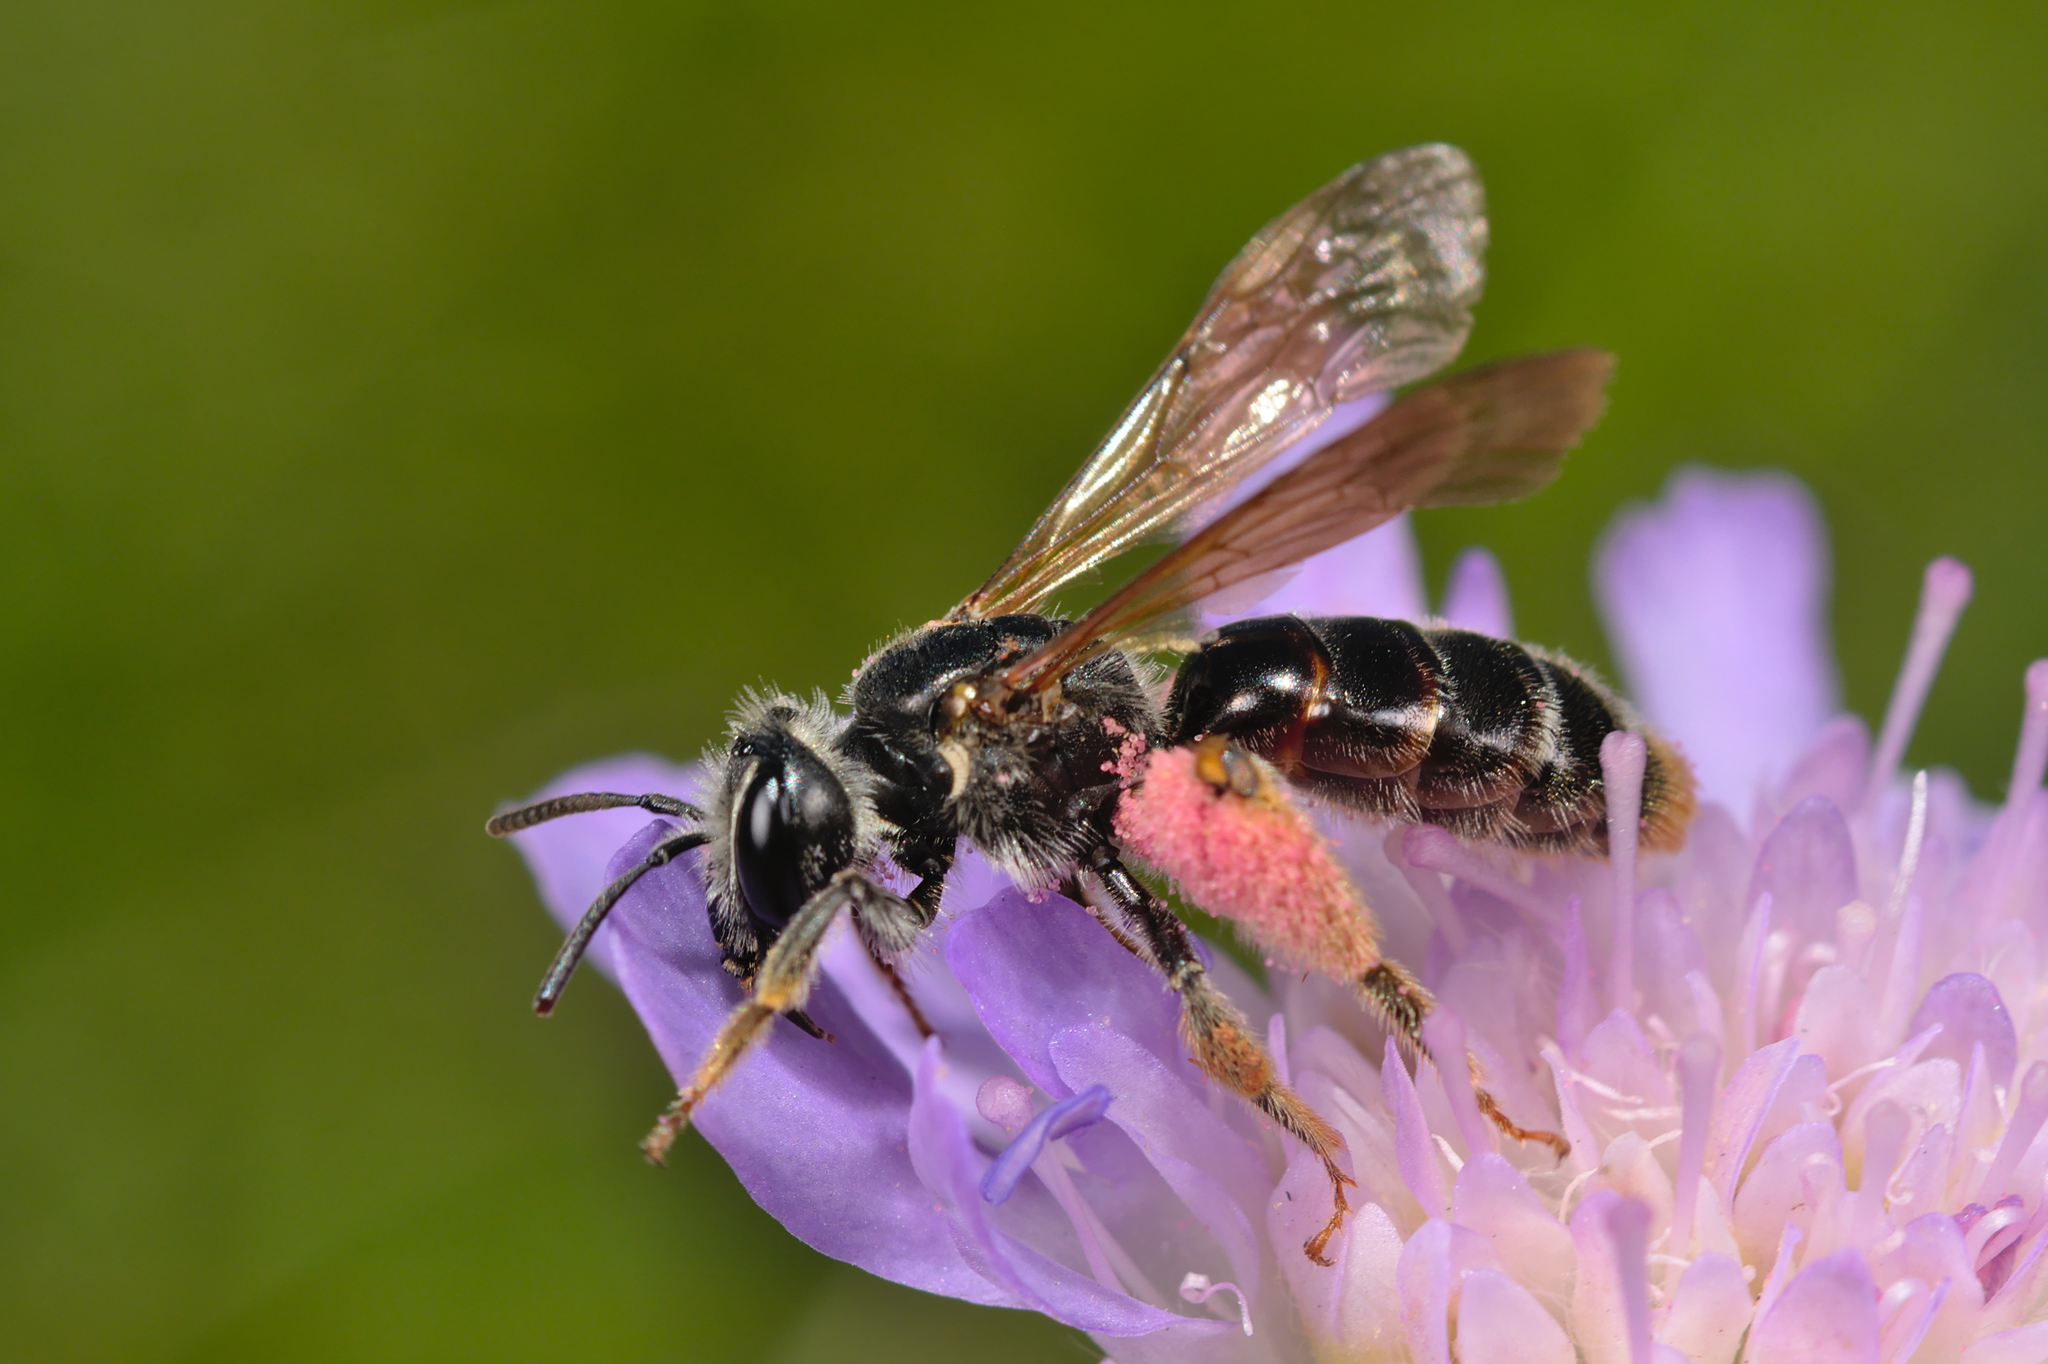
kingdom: Animalia
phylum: Arthropoda
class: Insecta
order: Hymenoptera
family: Andrenidae
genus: Andrena
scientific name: Andrena hattorfiana
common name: Large scabious mining bee
